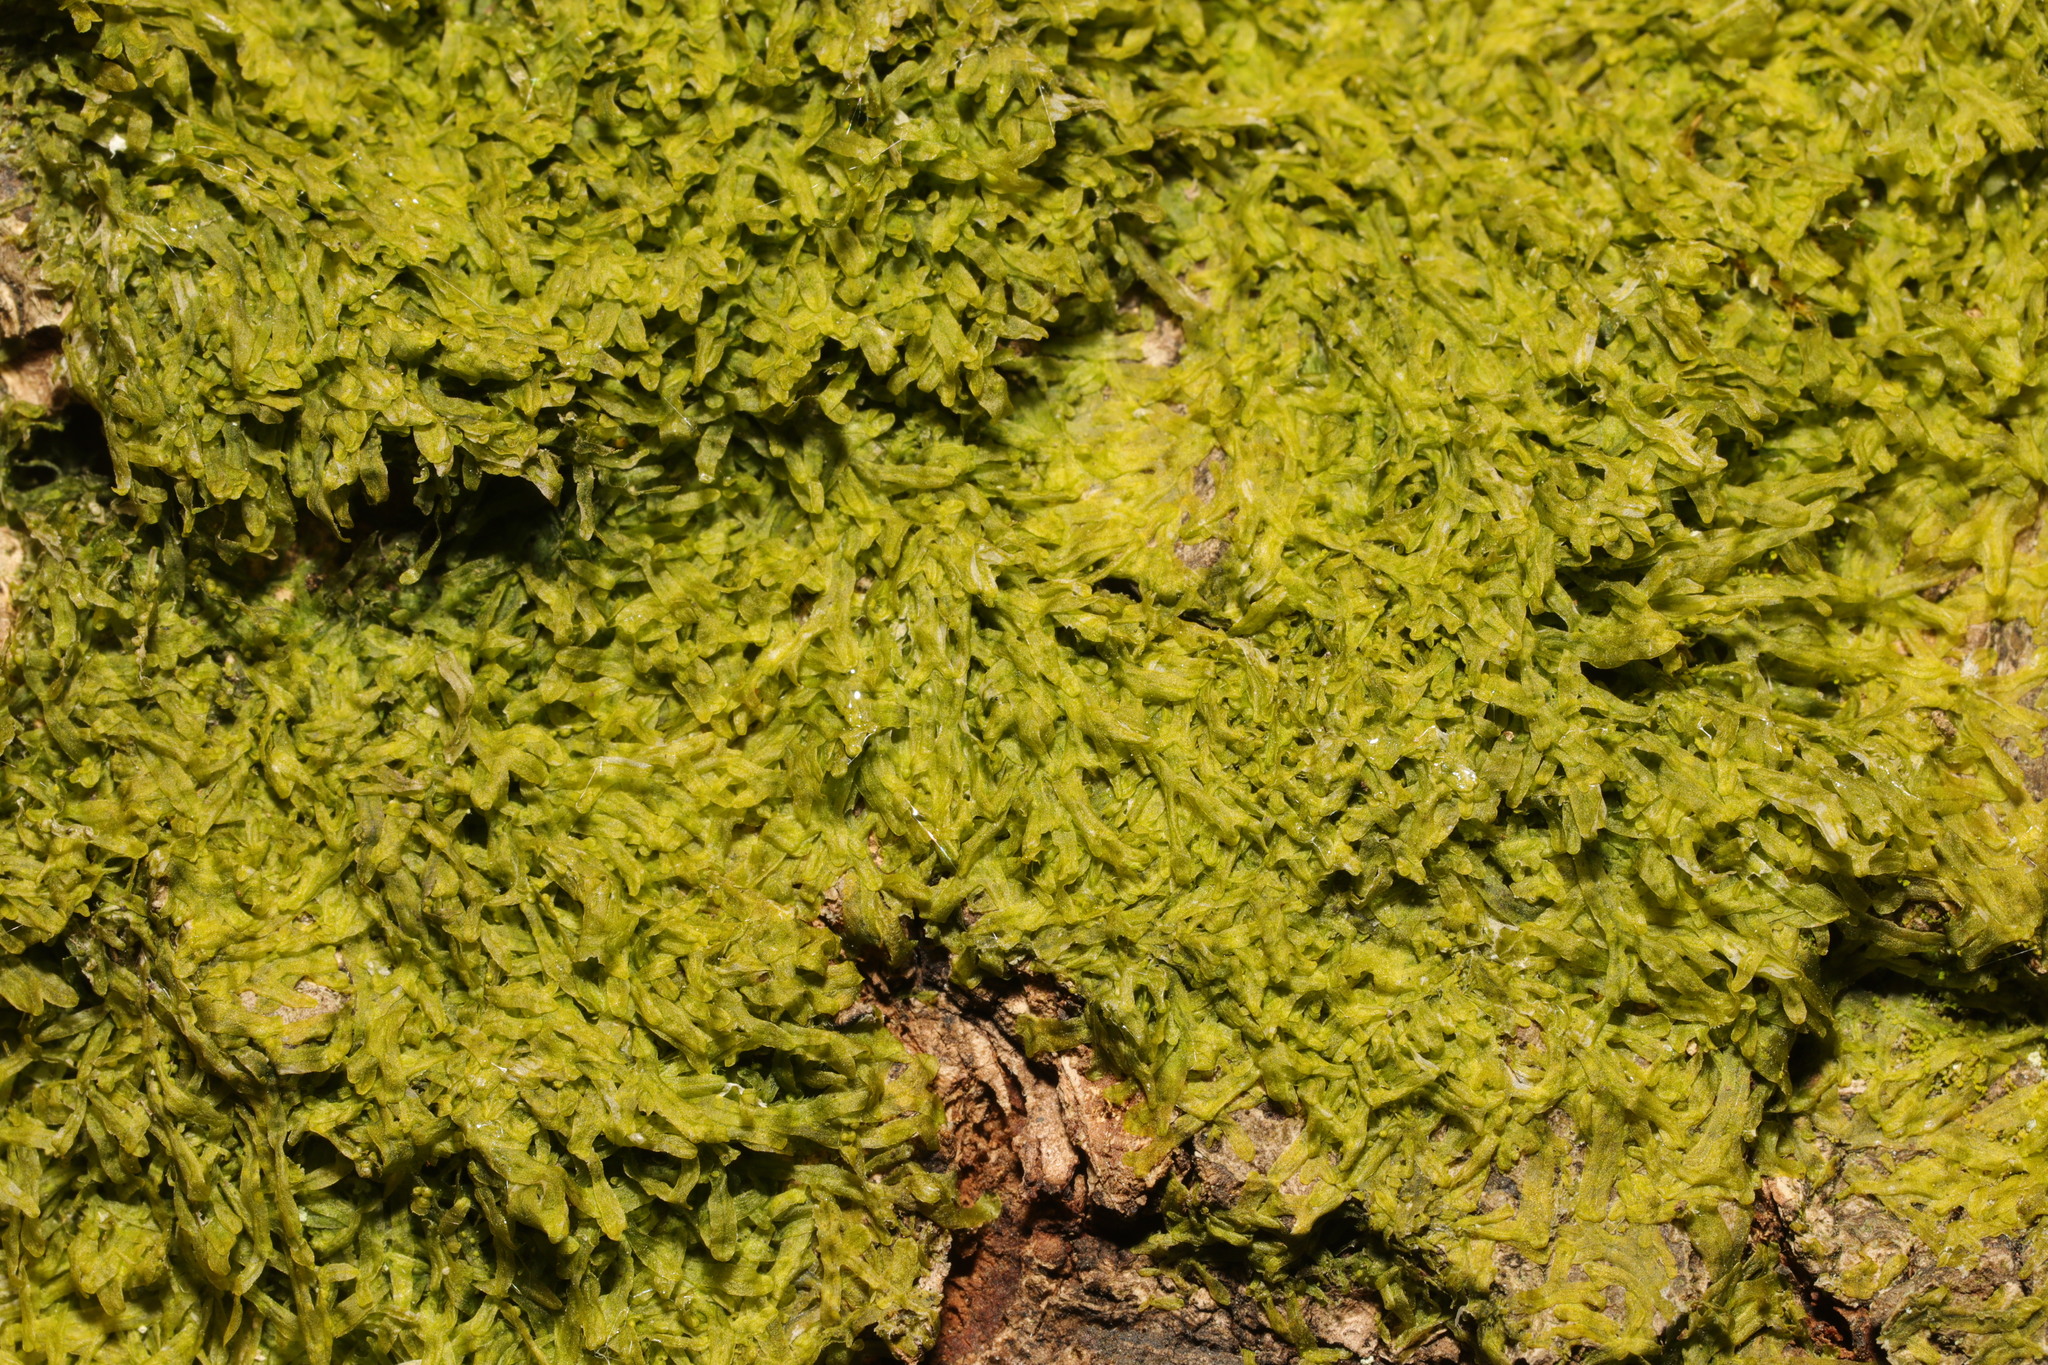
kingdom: Plantae
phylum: Marchantiophyta
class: Jungermanniopsida
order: Metzgeriales
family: Metzgeriaceae
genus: Metzgeria
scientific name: Metzgeria furcata
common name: Forked veilwort
